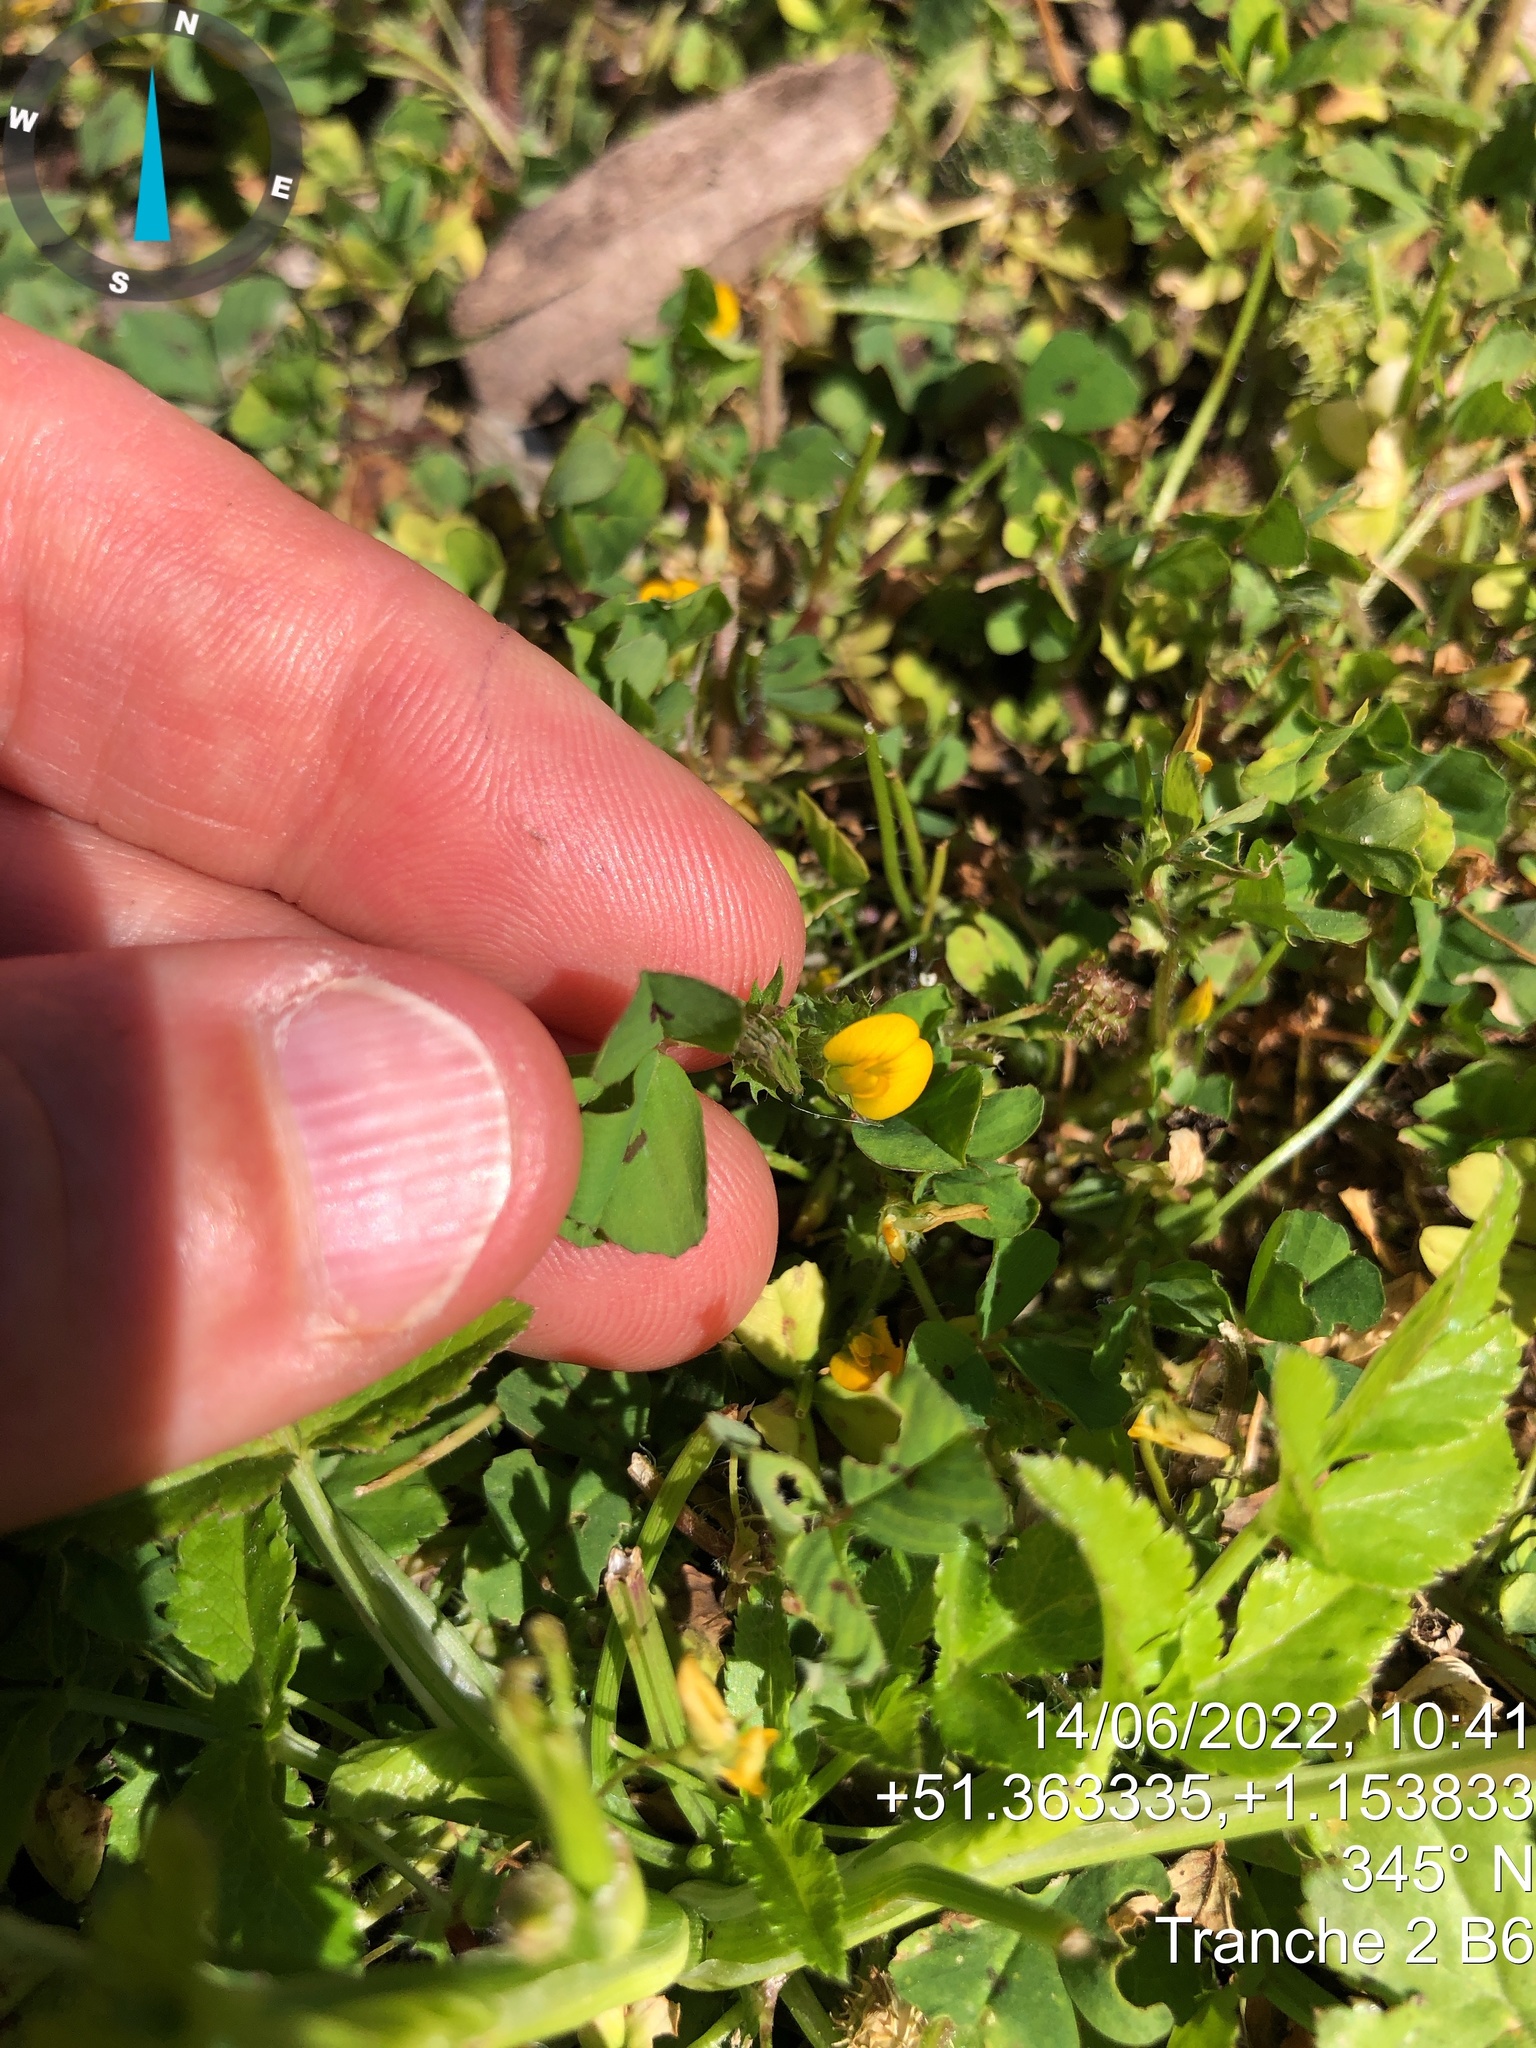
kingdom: Plantae
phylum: Tracheophyta
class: Magnoliopsida
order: Fabales
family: Fabaceae
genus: Medicago
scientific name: Medicago arabica
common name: Spotted medick
